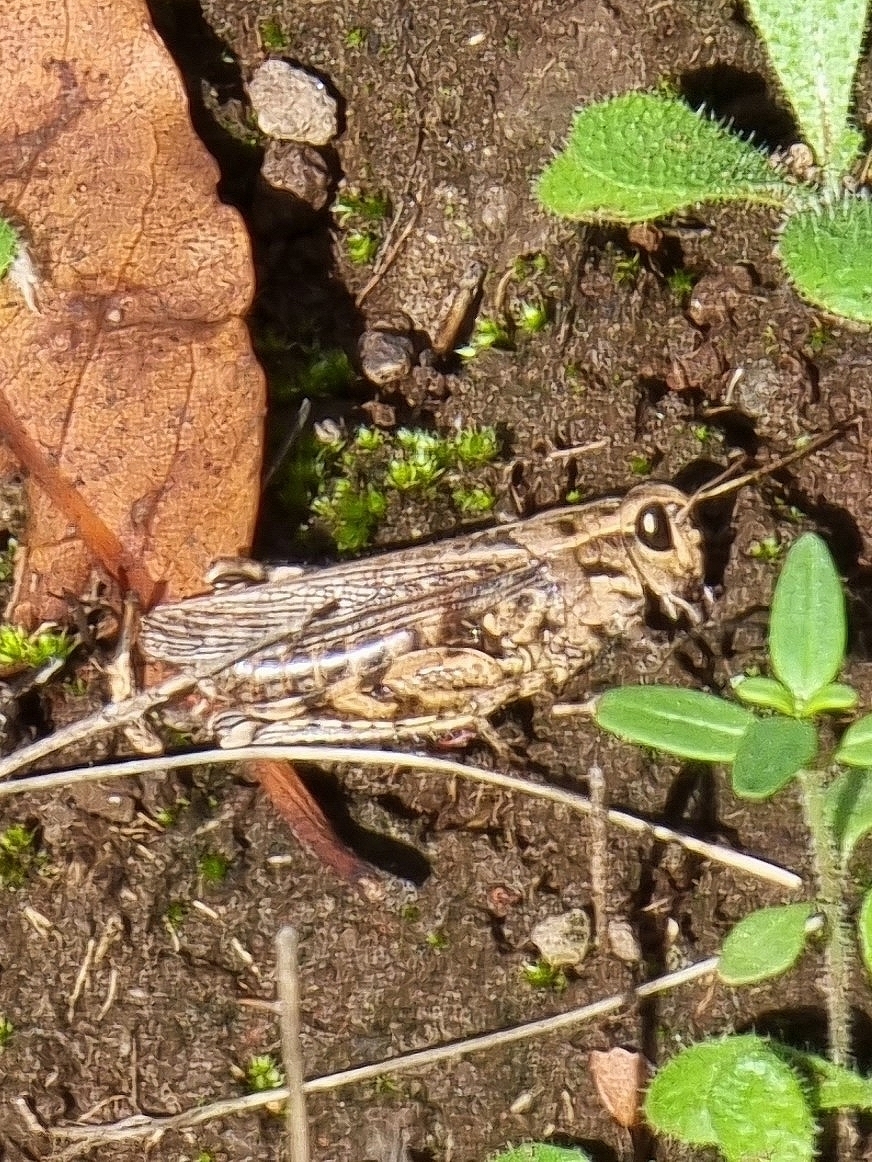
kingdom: Animalia
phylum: Arthropoda
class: Insecta
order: Orthoptera
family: Acrididae
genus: Calliptamus
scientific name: Calliptamus madeirae
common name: Madeira pincer grasshopper
